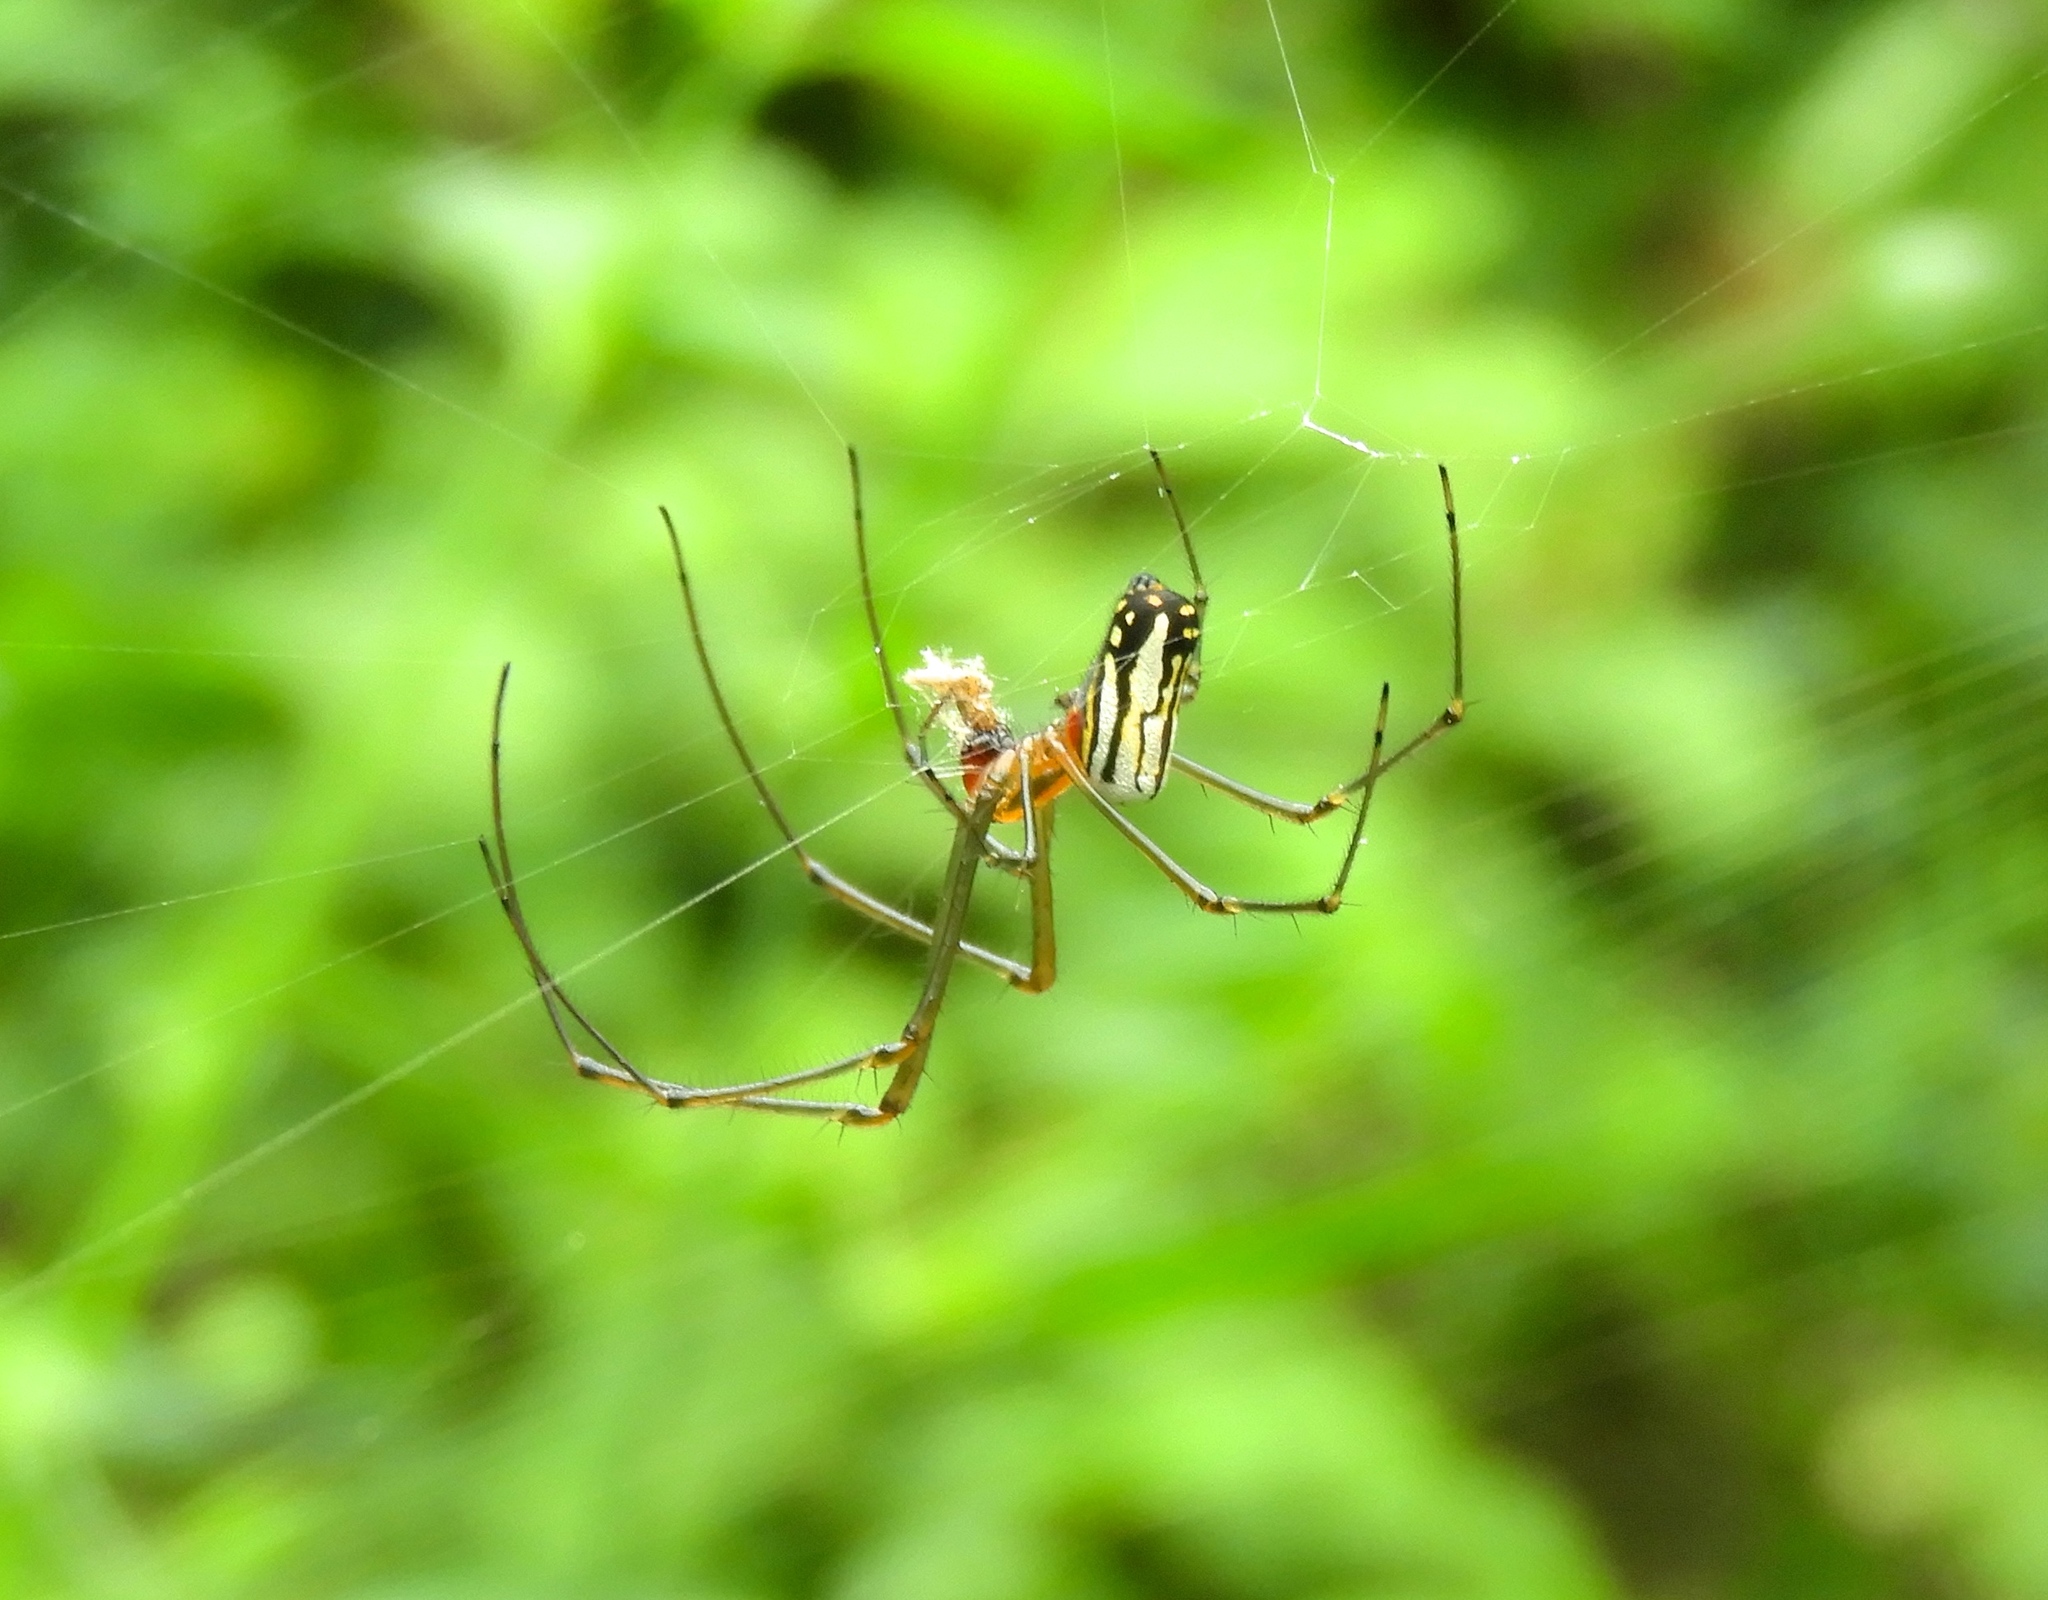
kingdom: Animalia
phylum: Arthropoda
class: Arachnida
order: Araneae
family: Tetragnathidae
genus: Leucauge
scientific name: Leucauge
